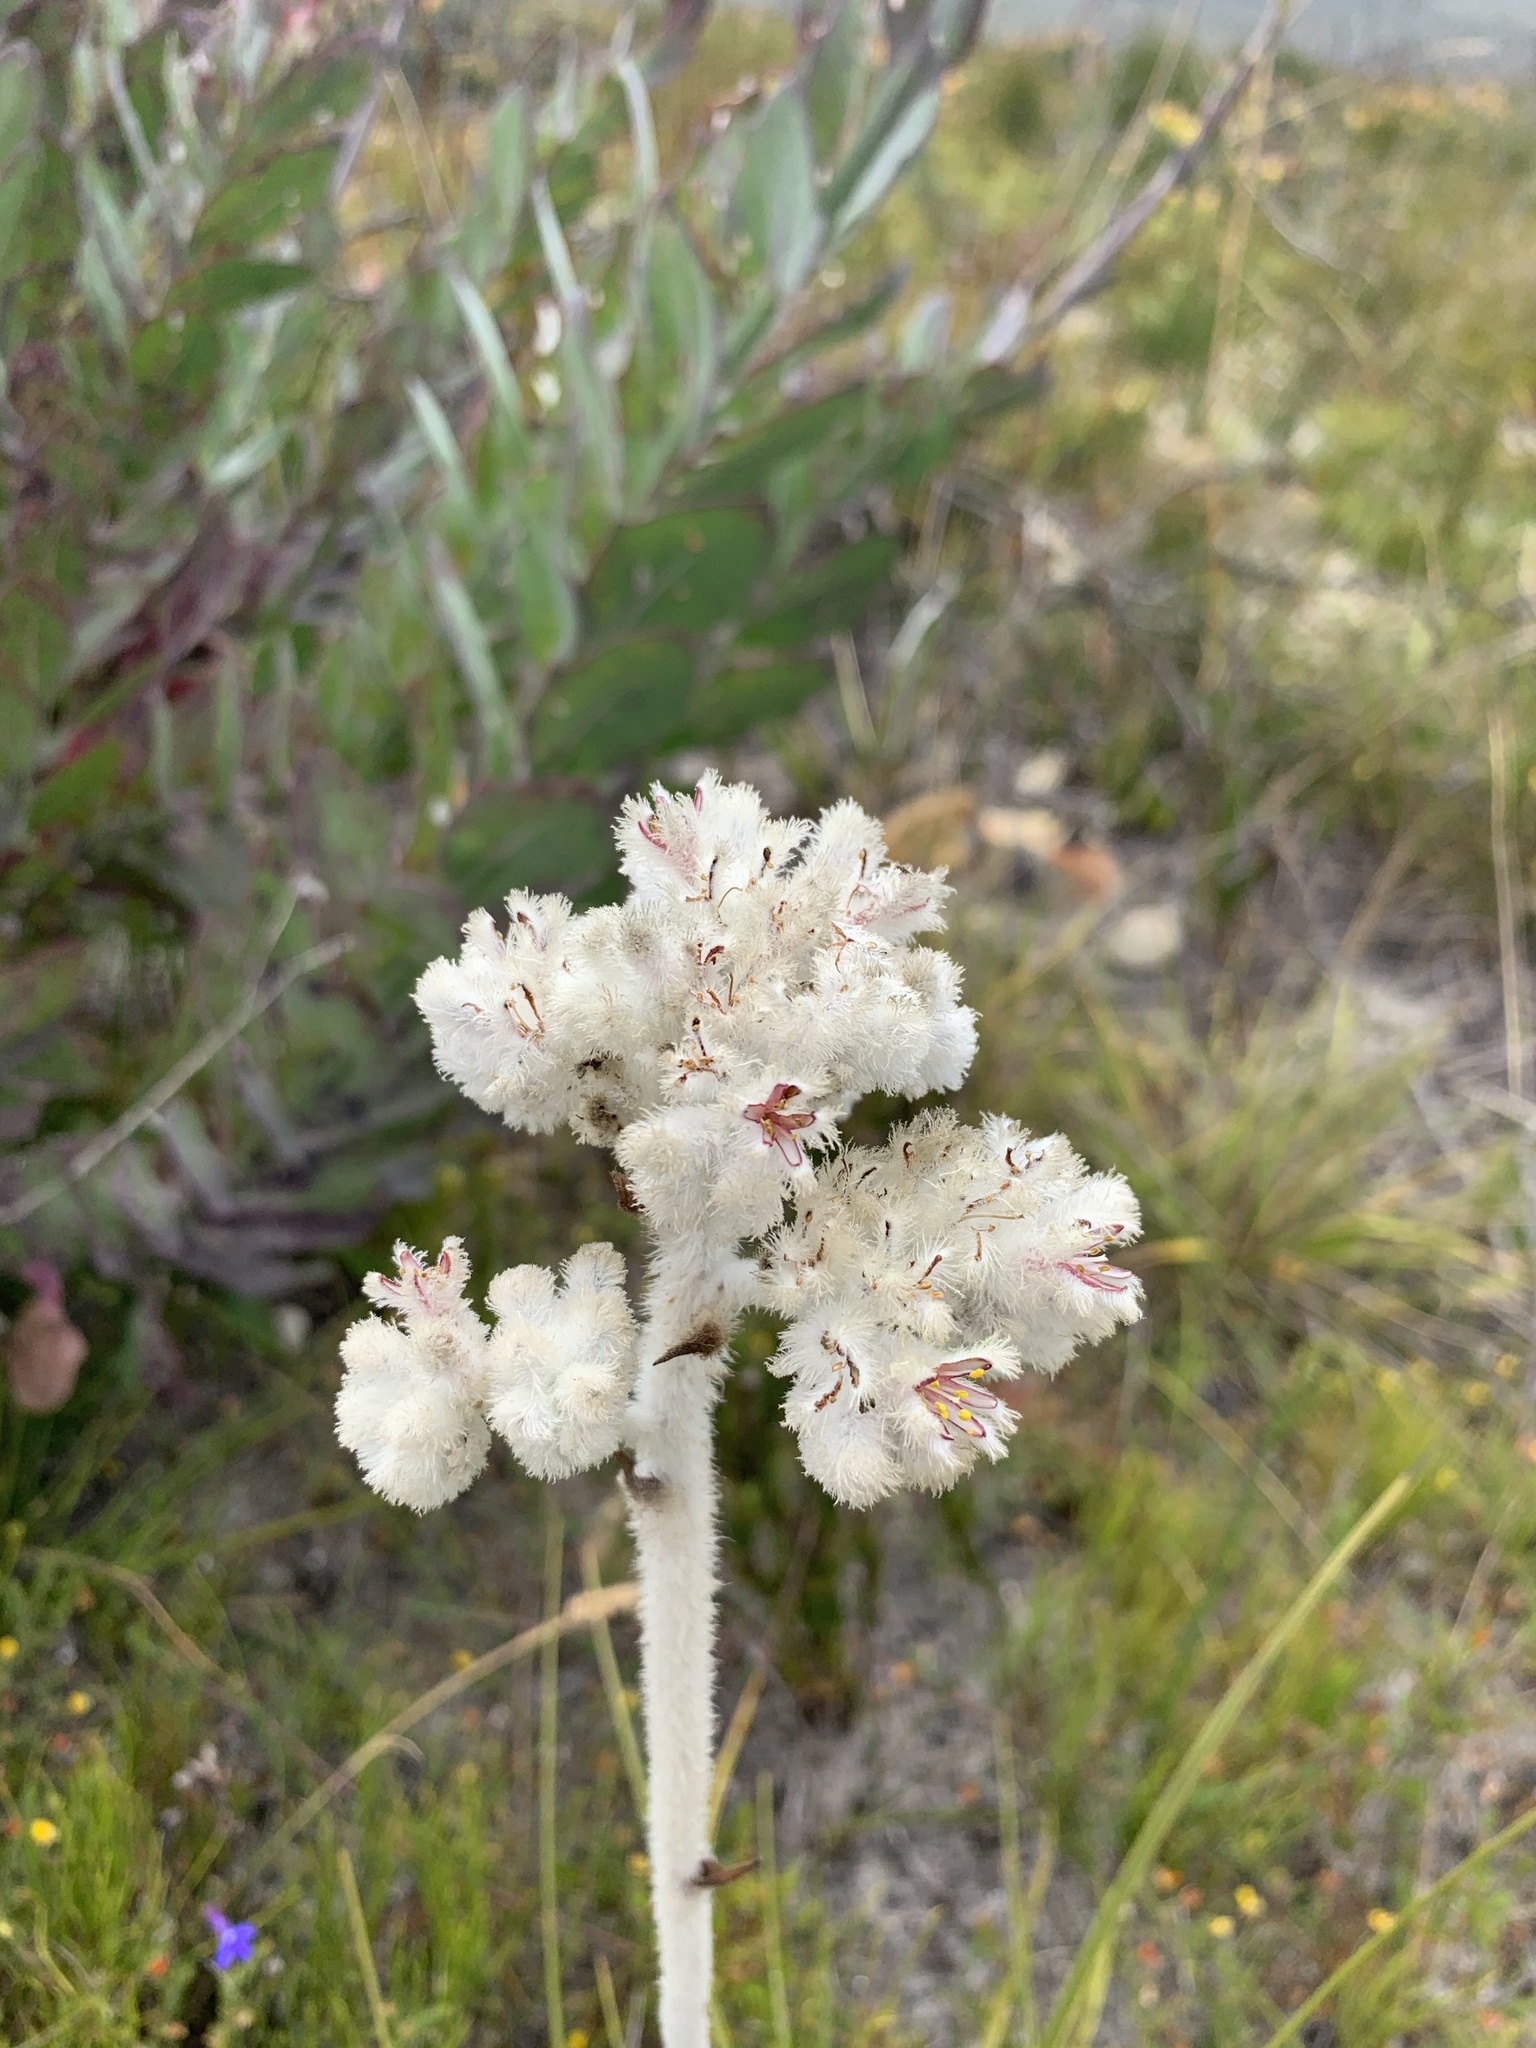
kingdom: Plantae
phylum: Tracheophyta
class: Liliopsida
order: Asparagales
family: Lanariaceae
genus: Lanaria
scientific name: Lanaria lanata
